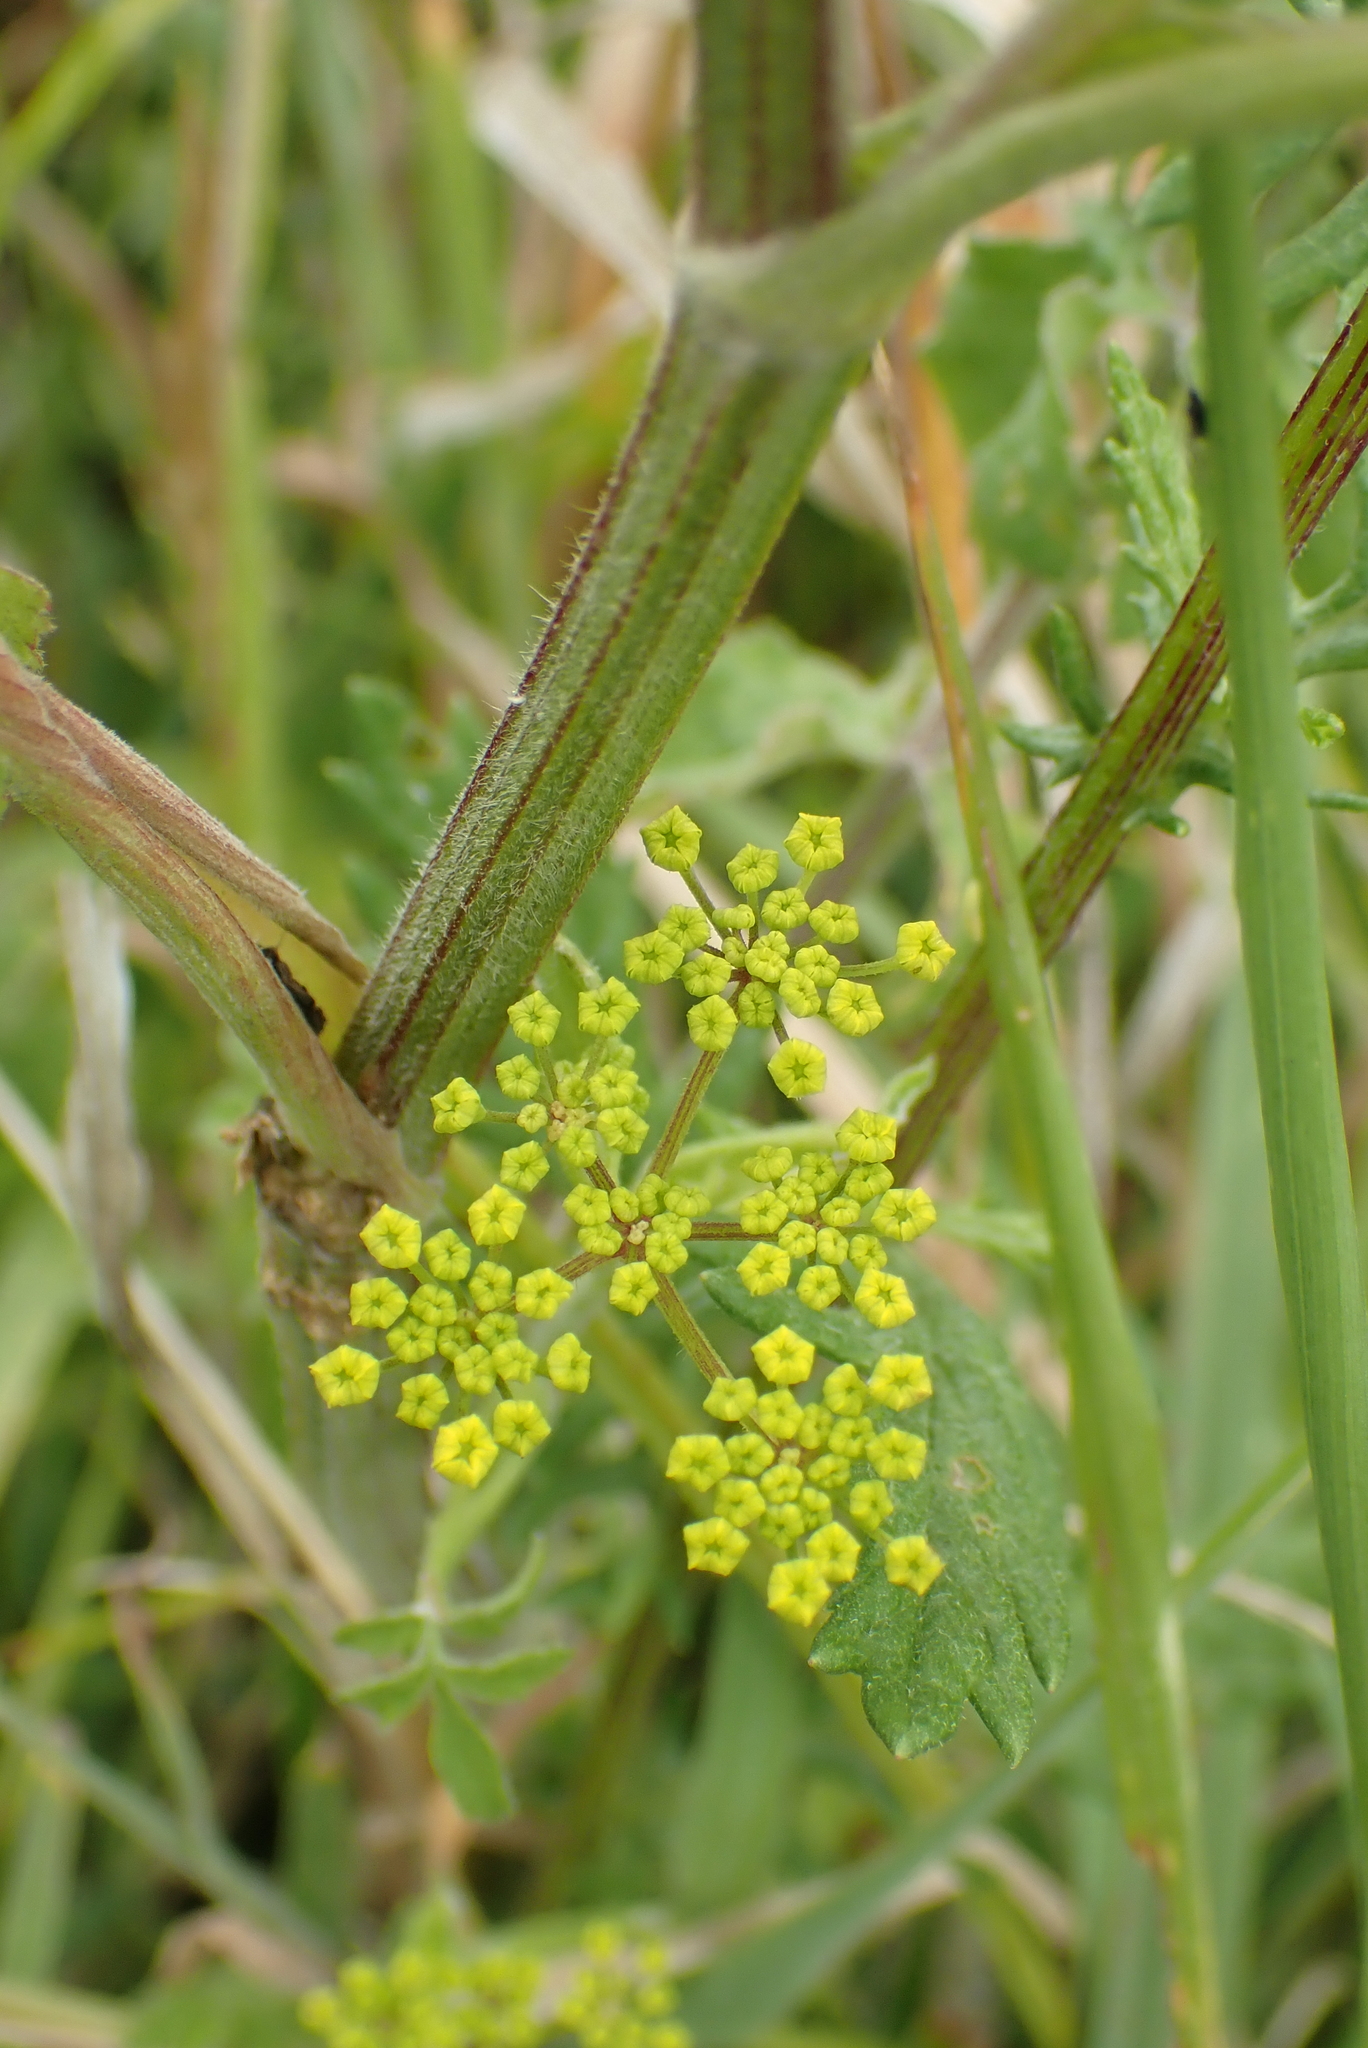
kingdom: Plantae
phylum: Tracheophyta
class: Magnoliopsida
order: Apiales
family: Apiaceae
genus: Pastinaca
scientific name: Pastinaca sativa
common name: Wild parsnip
